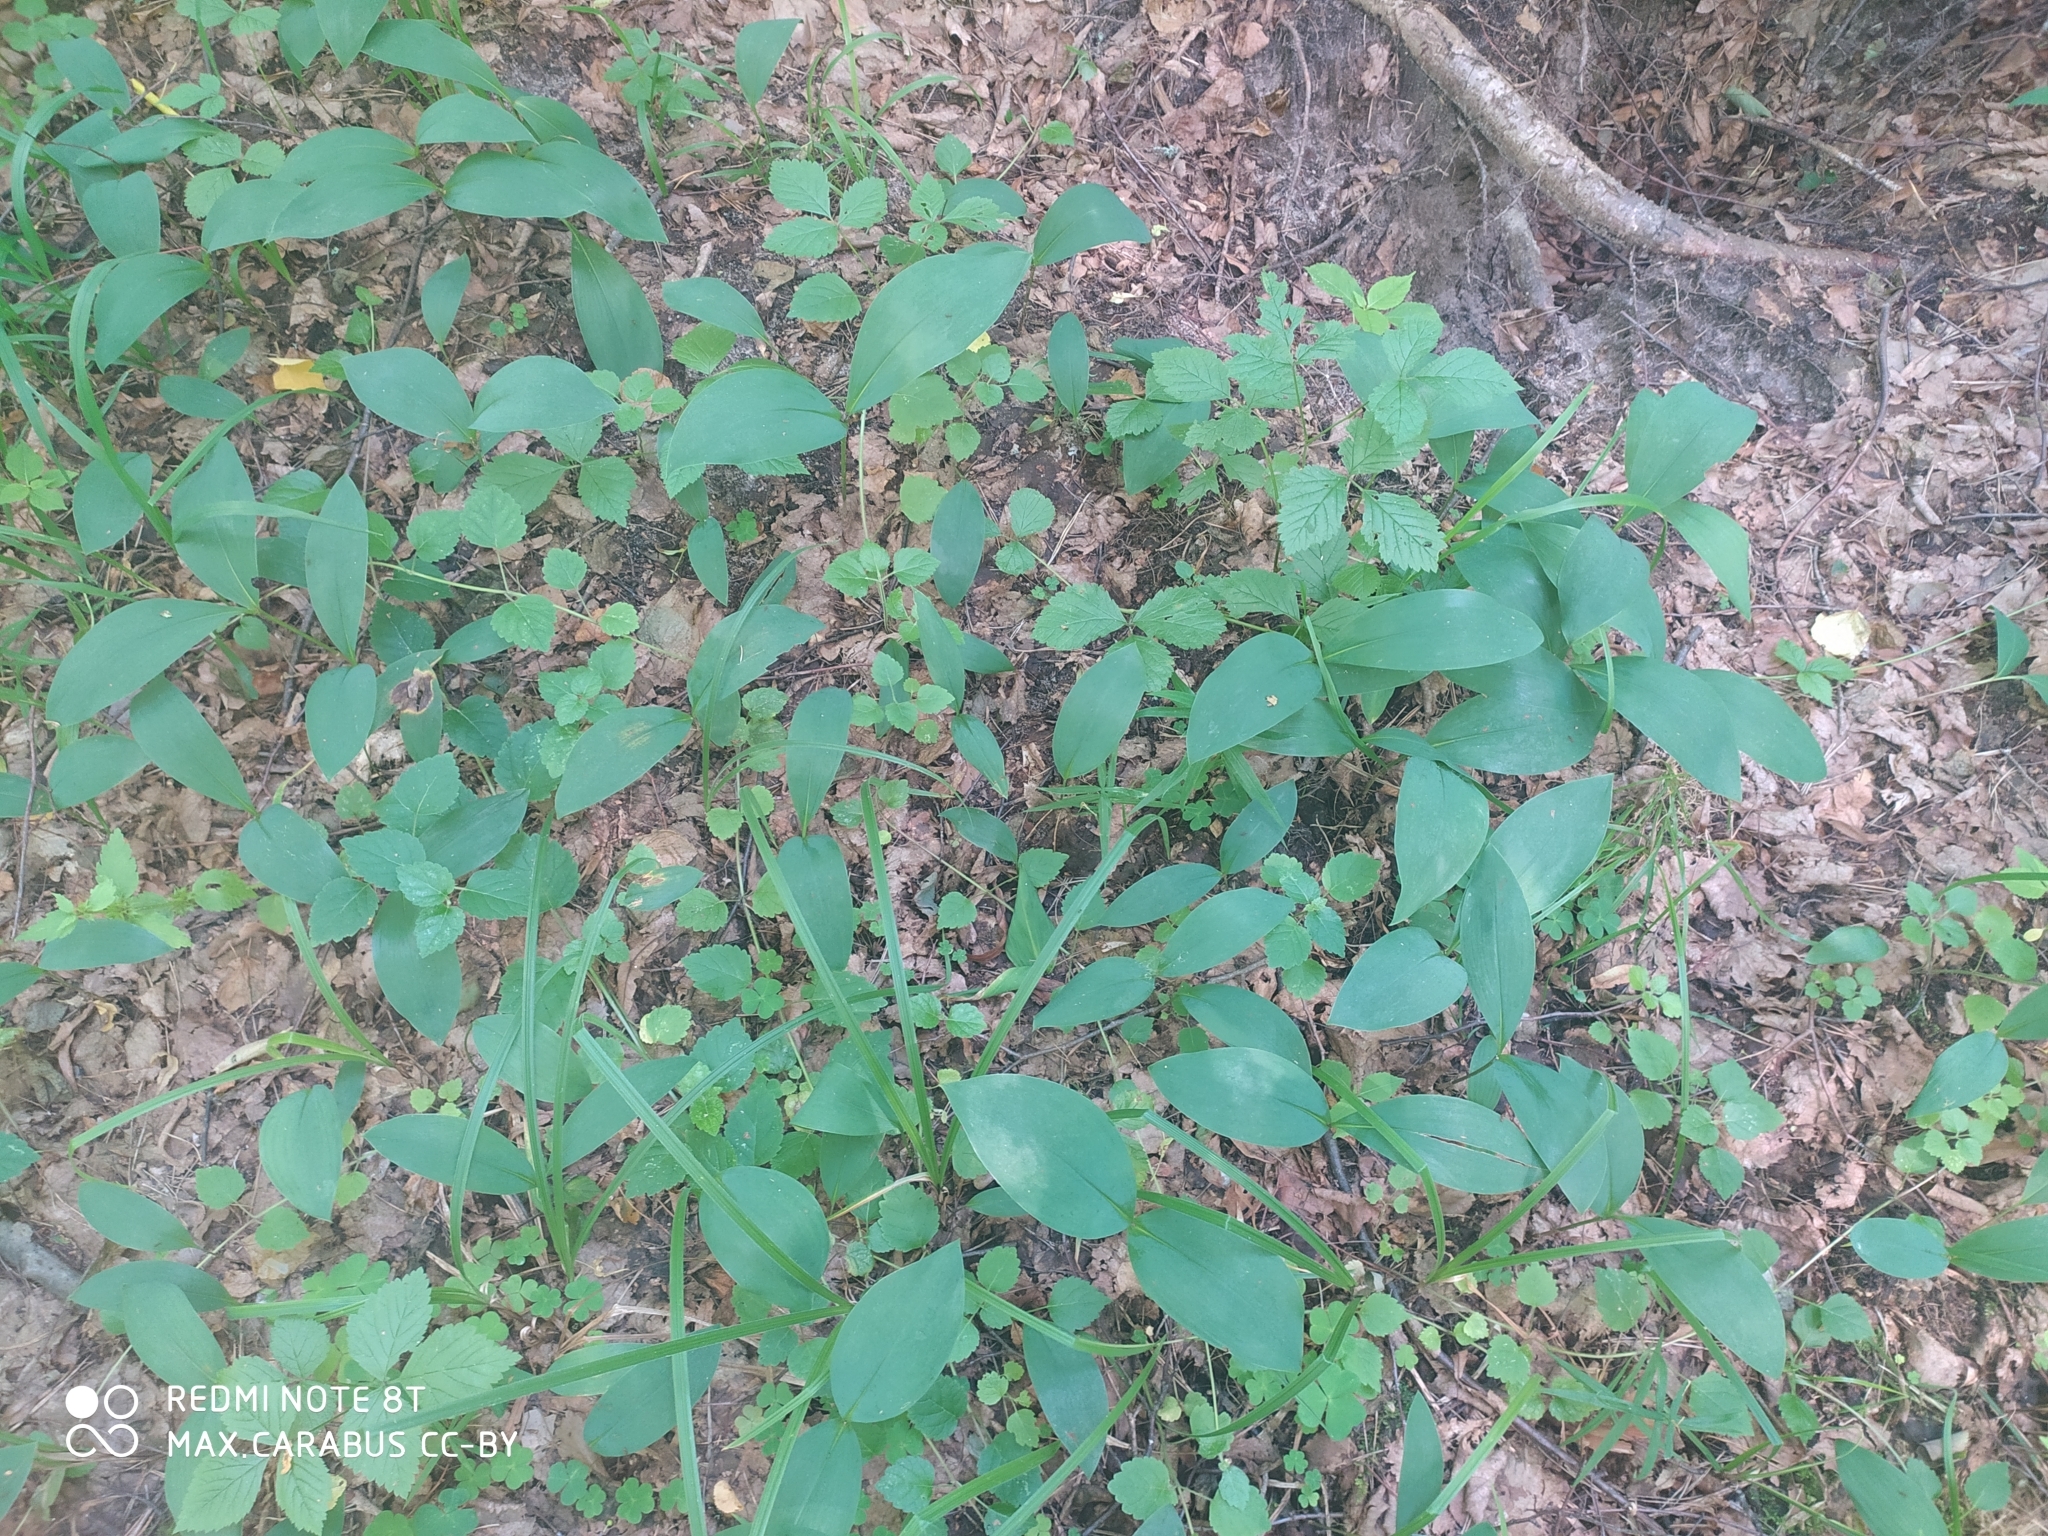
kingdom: Plantae
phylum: Tracheophyta
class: Liliopsida
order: Asparagales
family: Asparagaceae
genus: Convallaria
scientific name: Convallaria majalis
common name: Lily-of-the-valley
